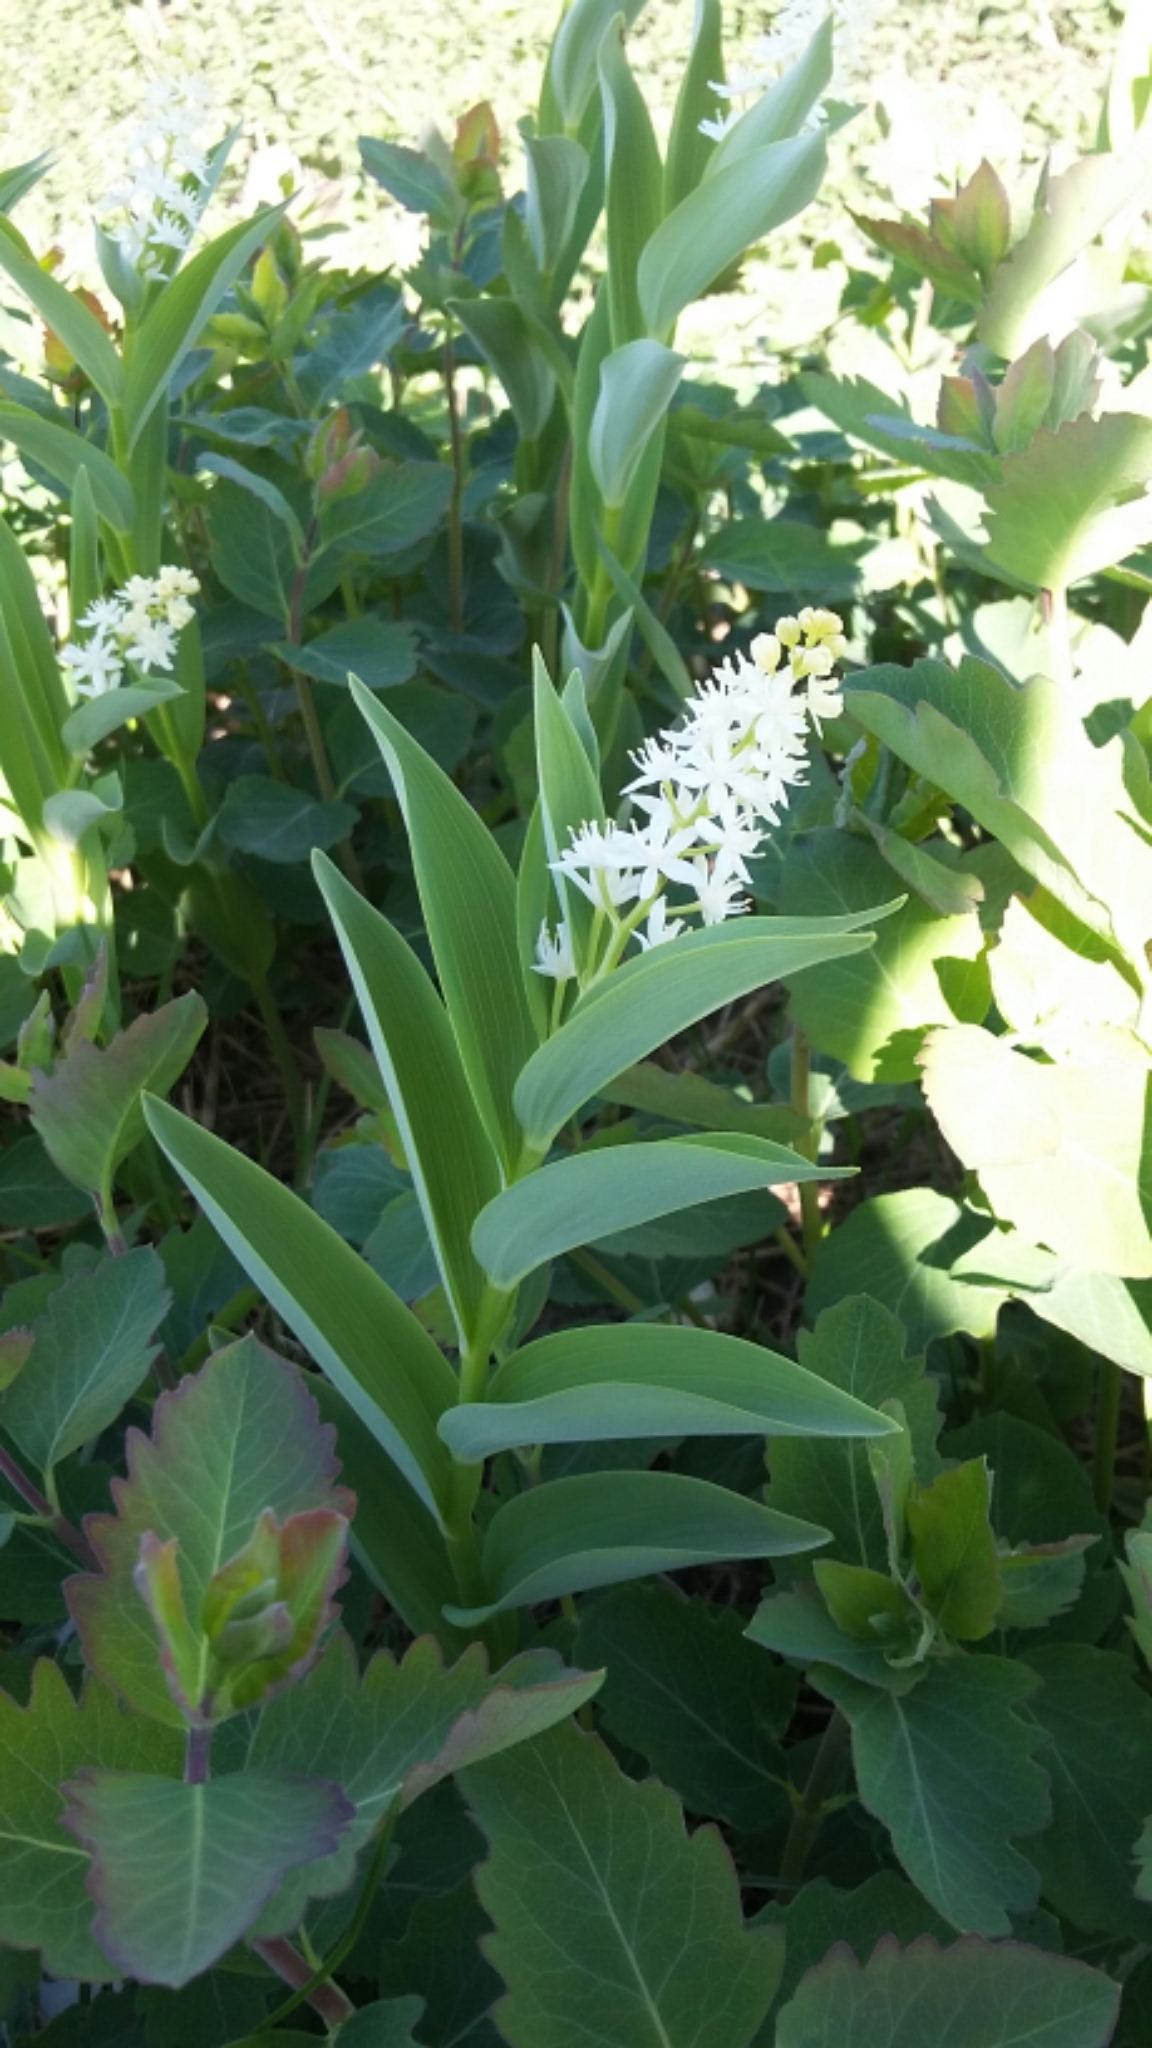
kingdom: Plantae
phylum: Tracheophyta
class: Liliopsida
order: Asparagales
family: Asparagaceae
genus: Maianthemum
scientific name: Maianthemum stellatum
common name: Little false solomon's seal
